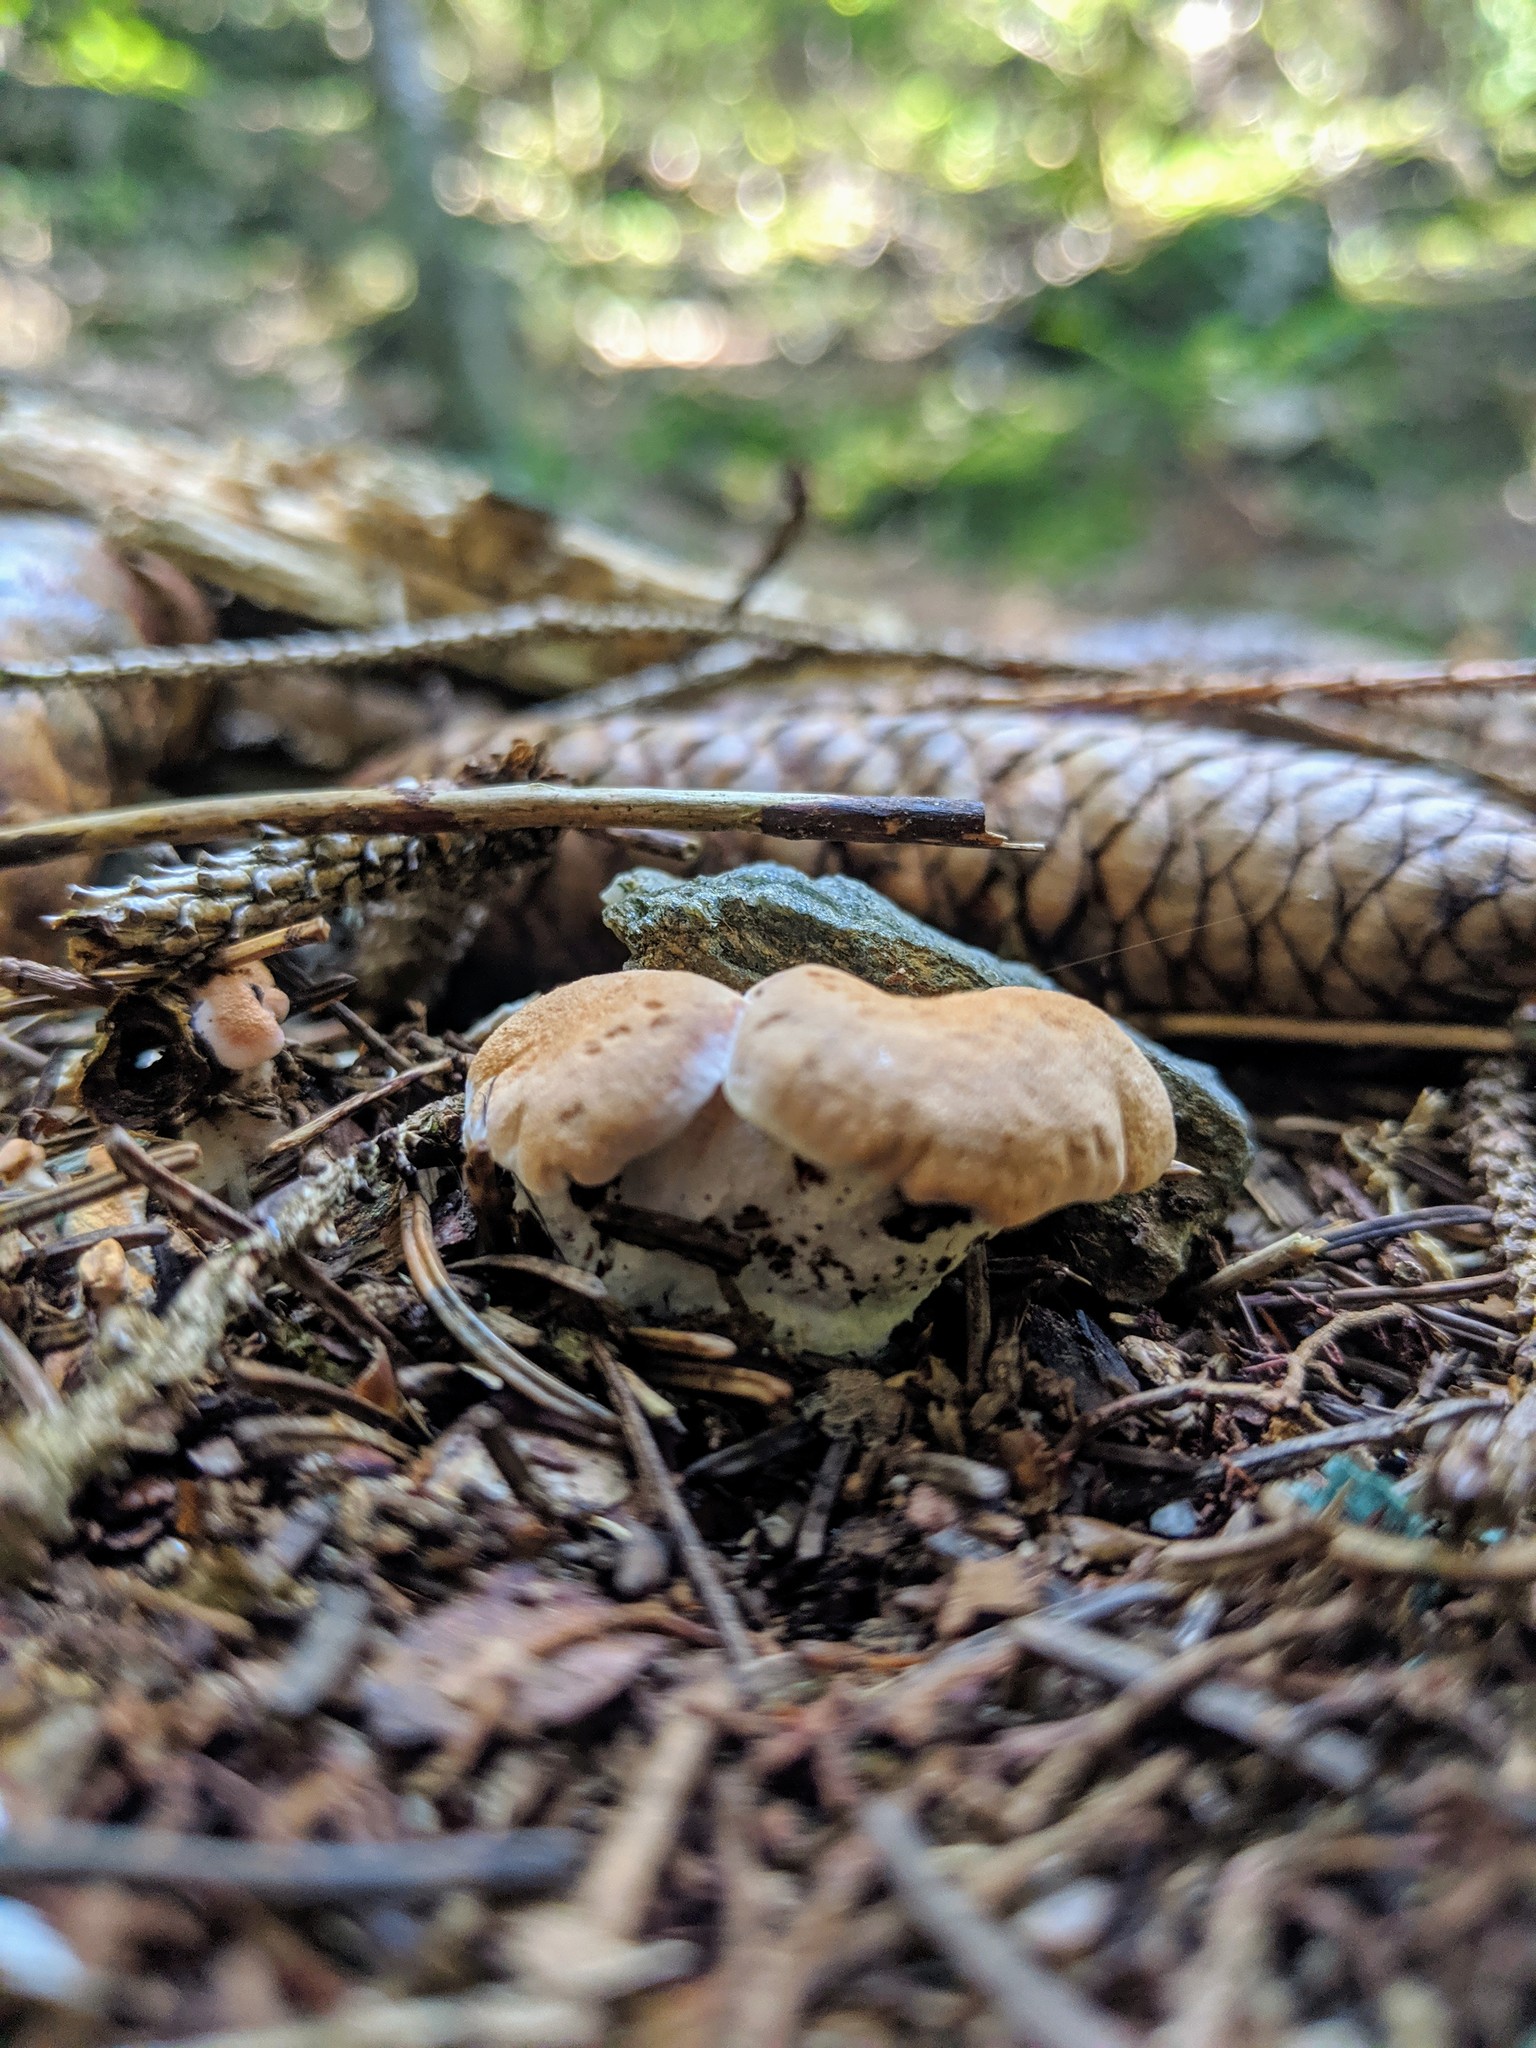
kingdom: Fungi
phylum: Basidiomycota
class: Agaricomycetes
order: Cantharellales
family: Hydnaceae
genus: Cantharellus
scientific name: Cantharellus cibarius
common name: Chanterelle
